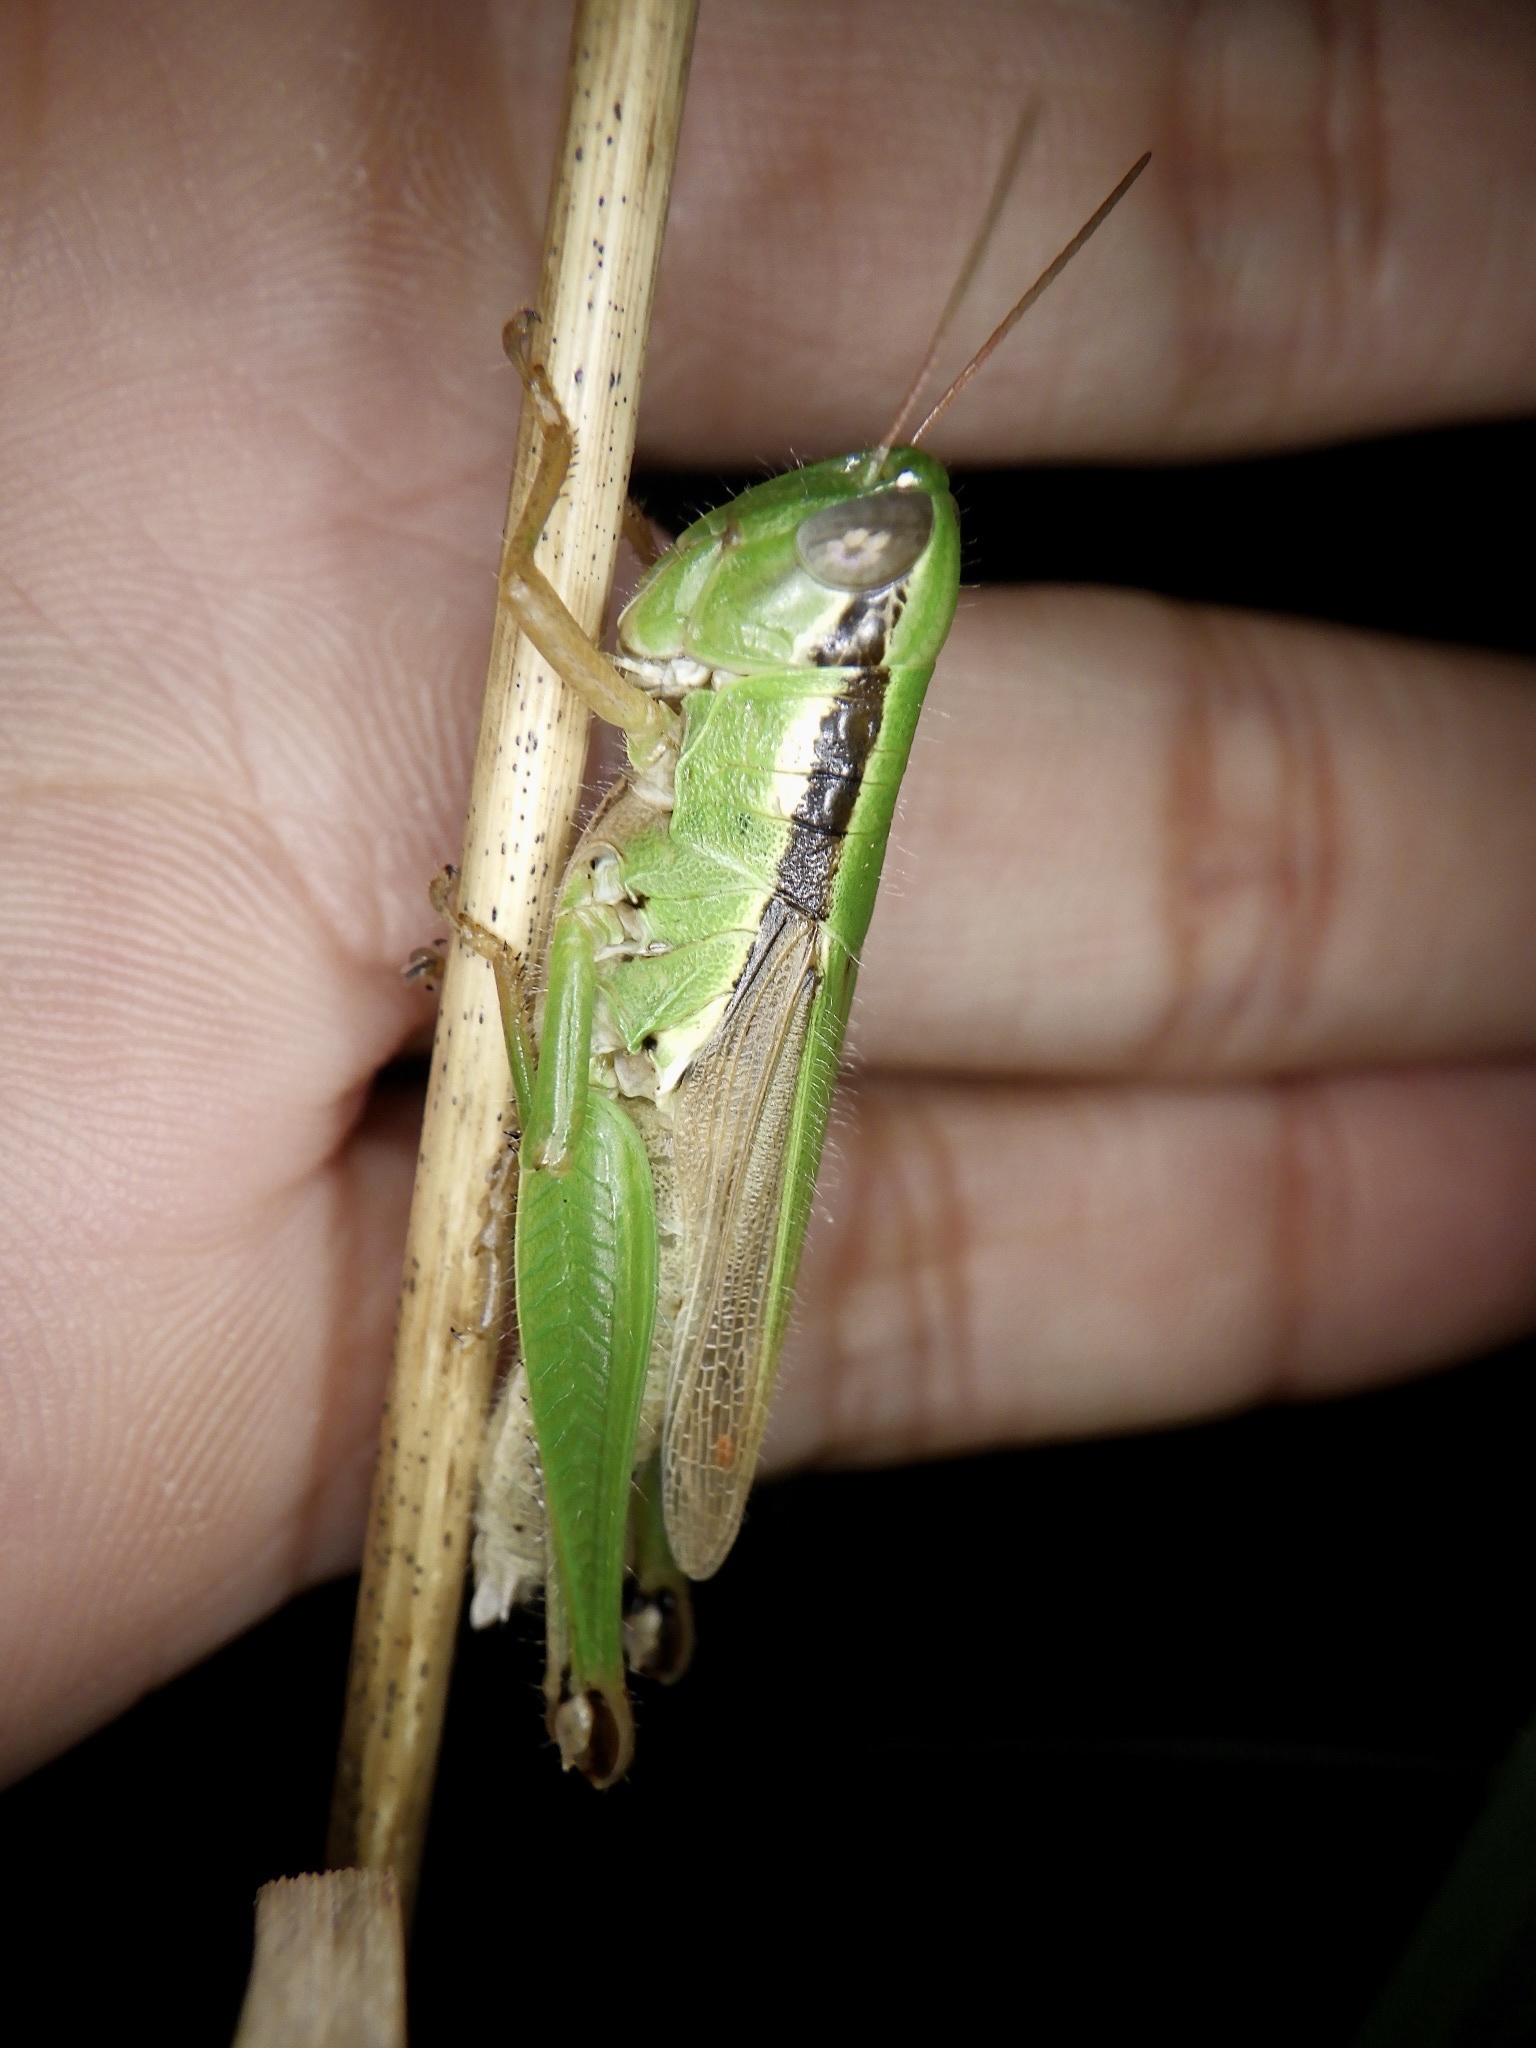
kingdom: Animalia
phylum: Arthropoda
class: Insecta
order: Orthoptera
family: Acrididae
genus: Oxya
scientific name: Oxya yezoensis
